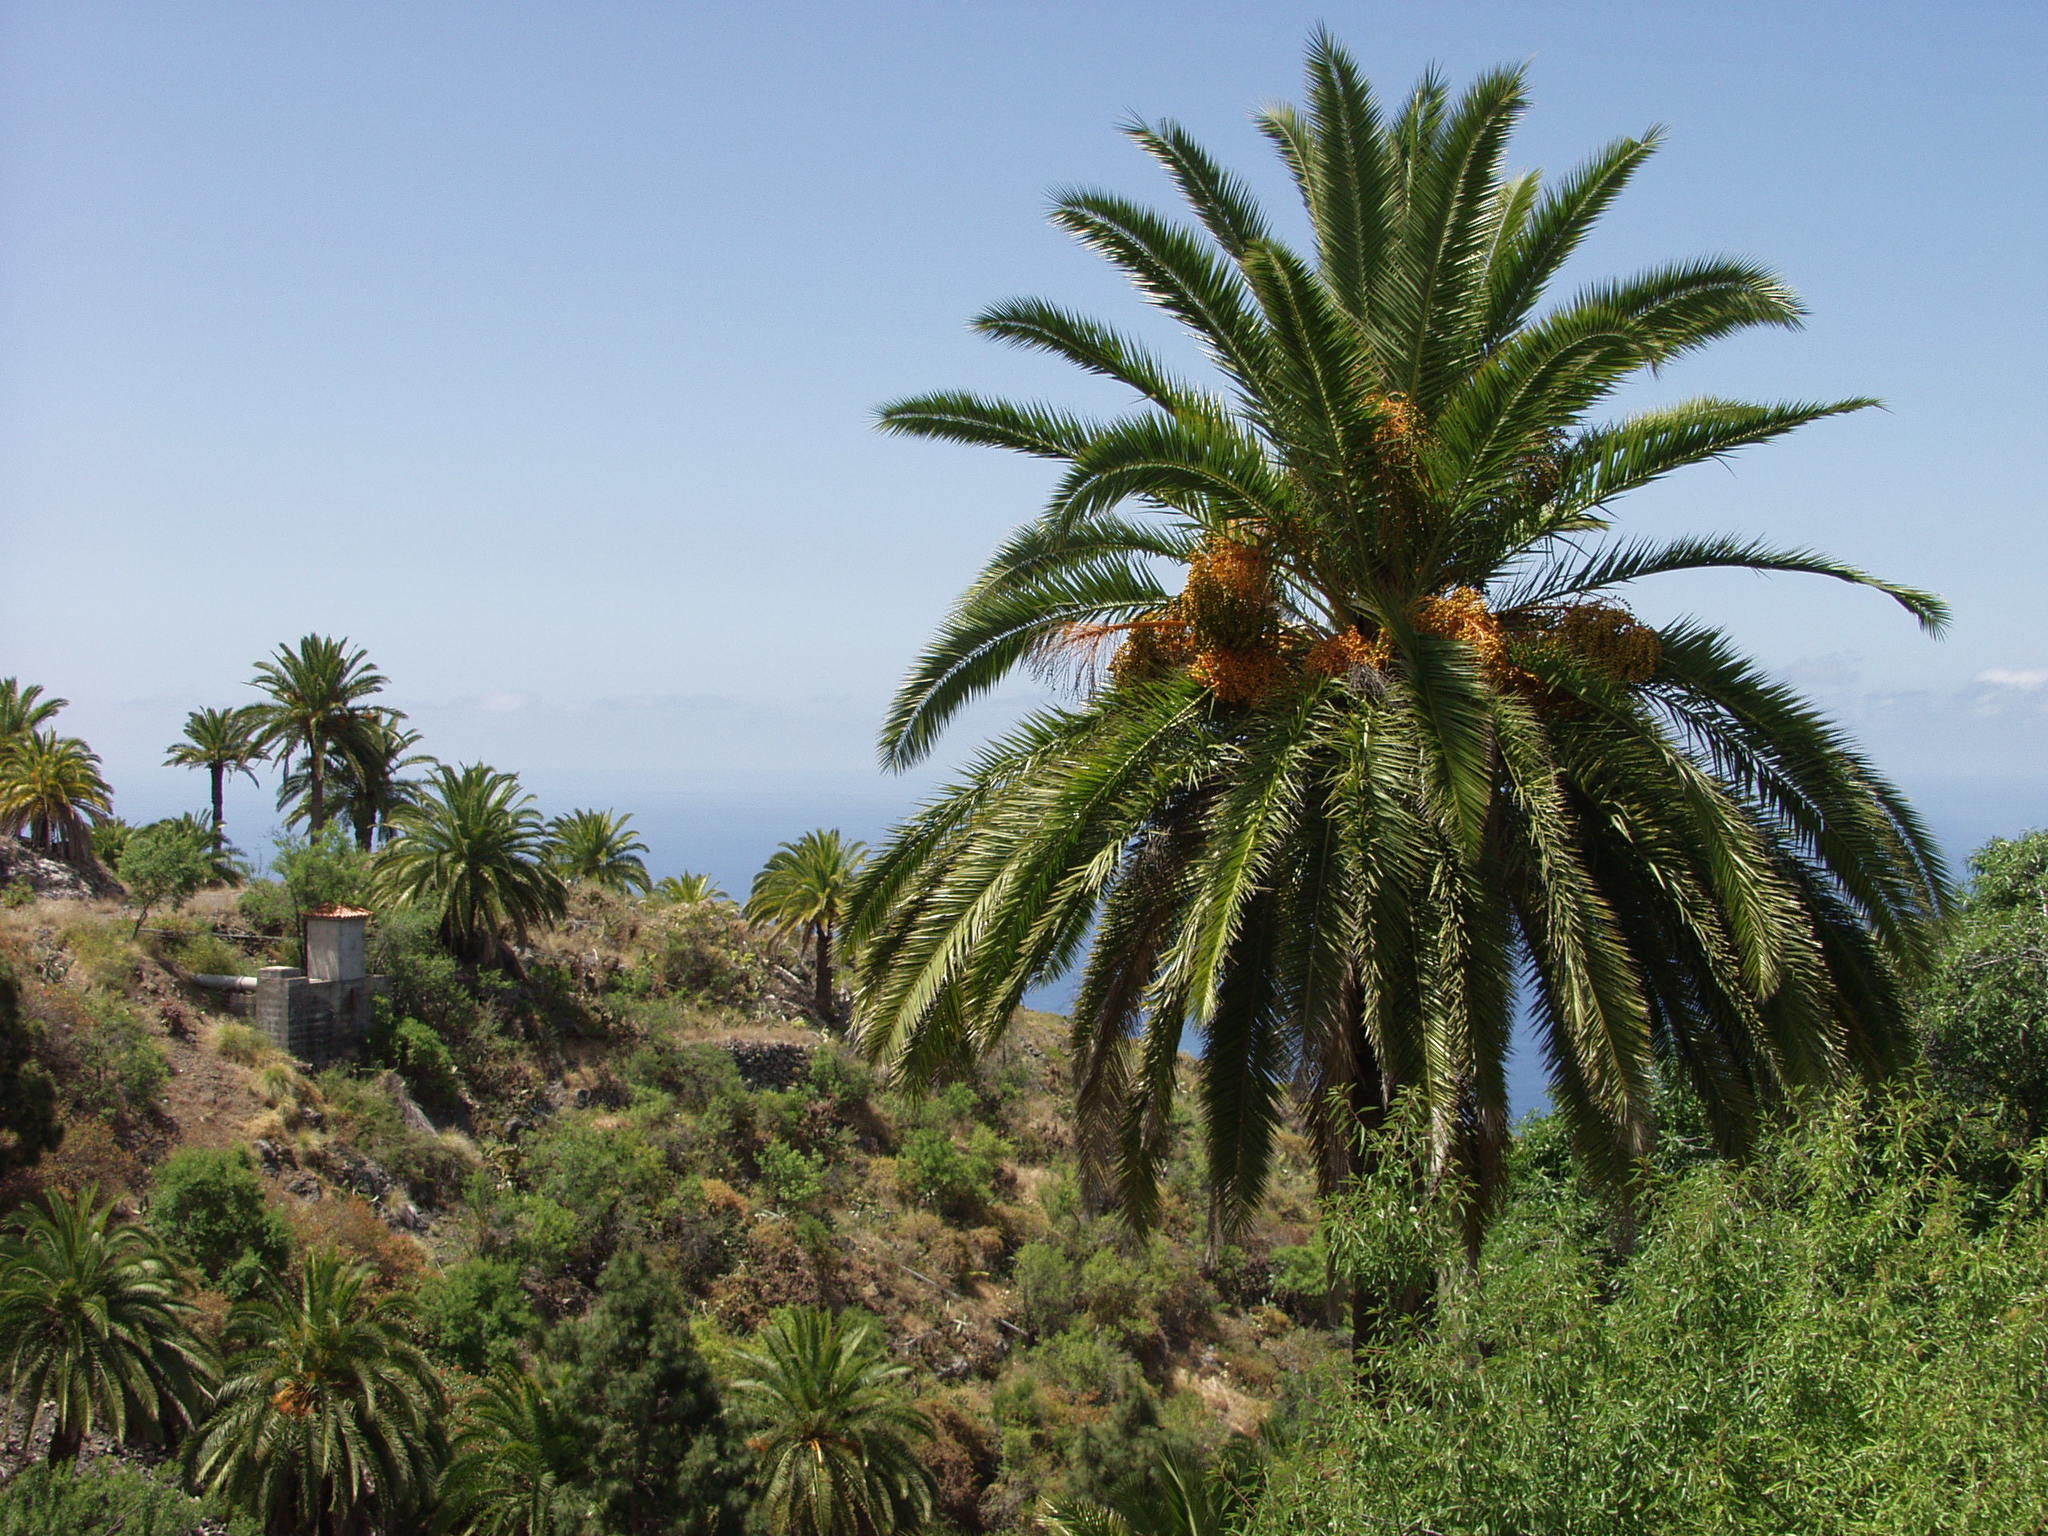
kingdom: Plantae
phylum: Tracheophyta
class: Liliopsida
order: Arecales
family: Arecaceae
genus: Phoenix
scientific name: Phoenix canariensis
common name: Canary island date palm
